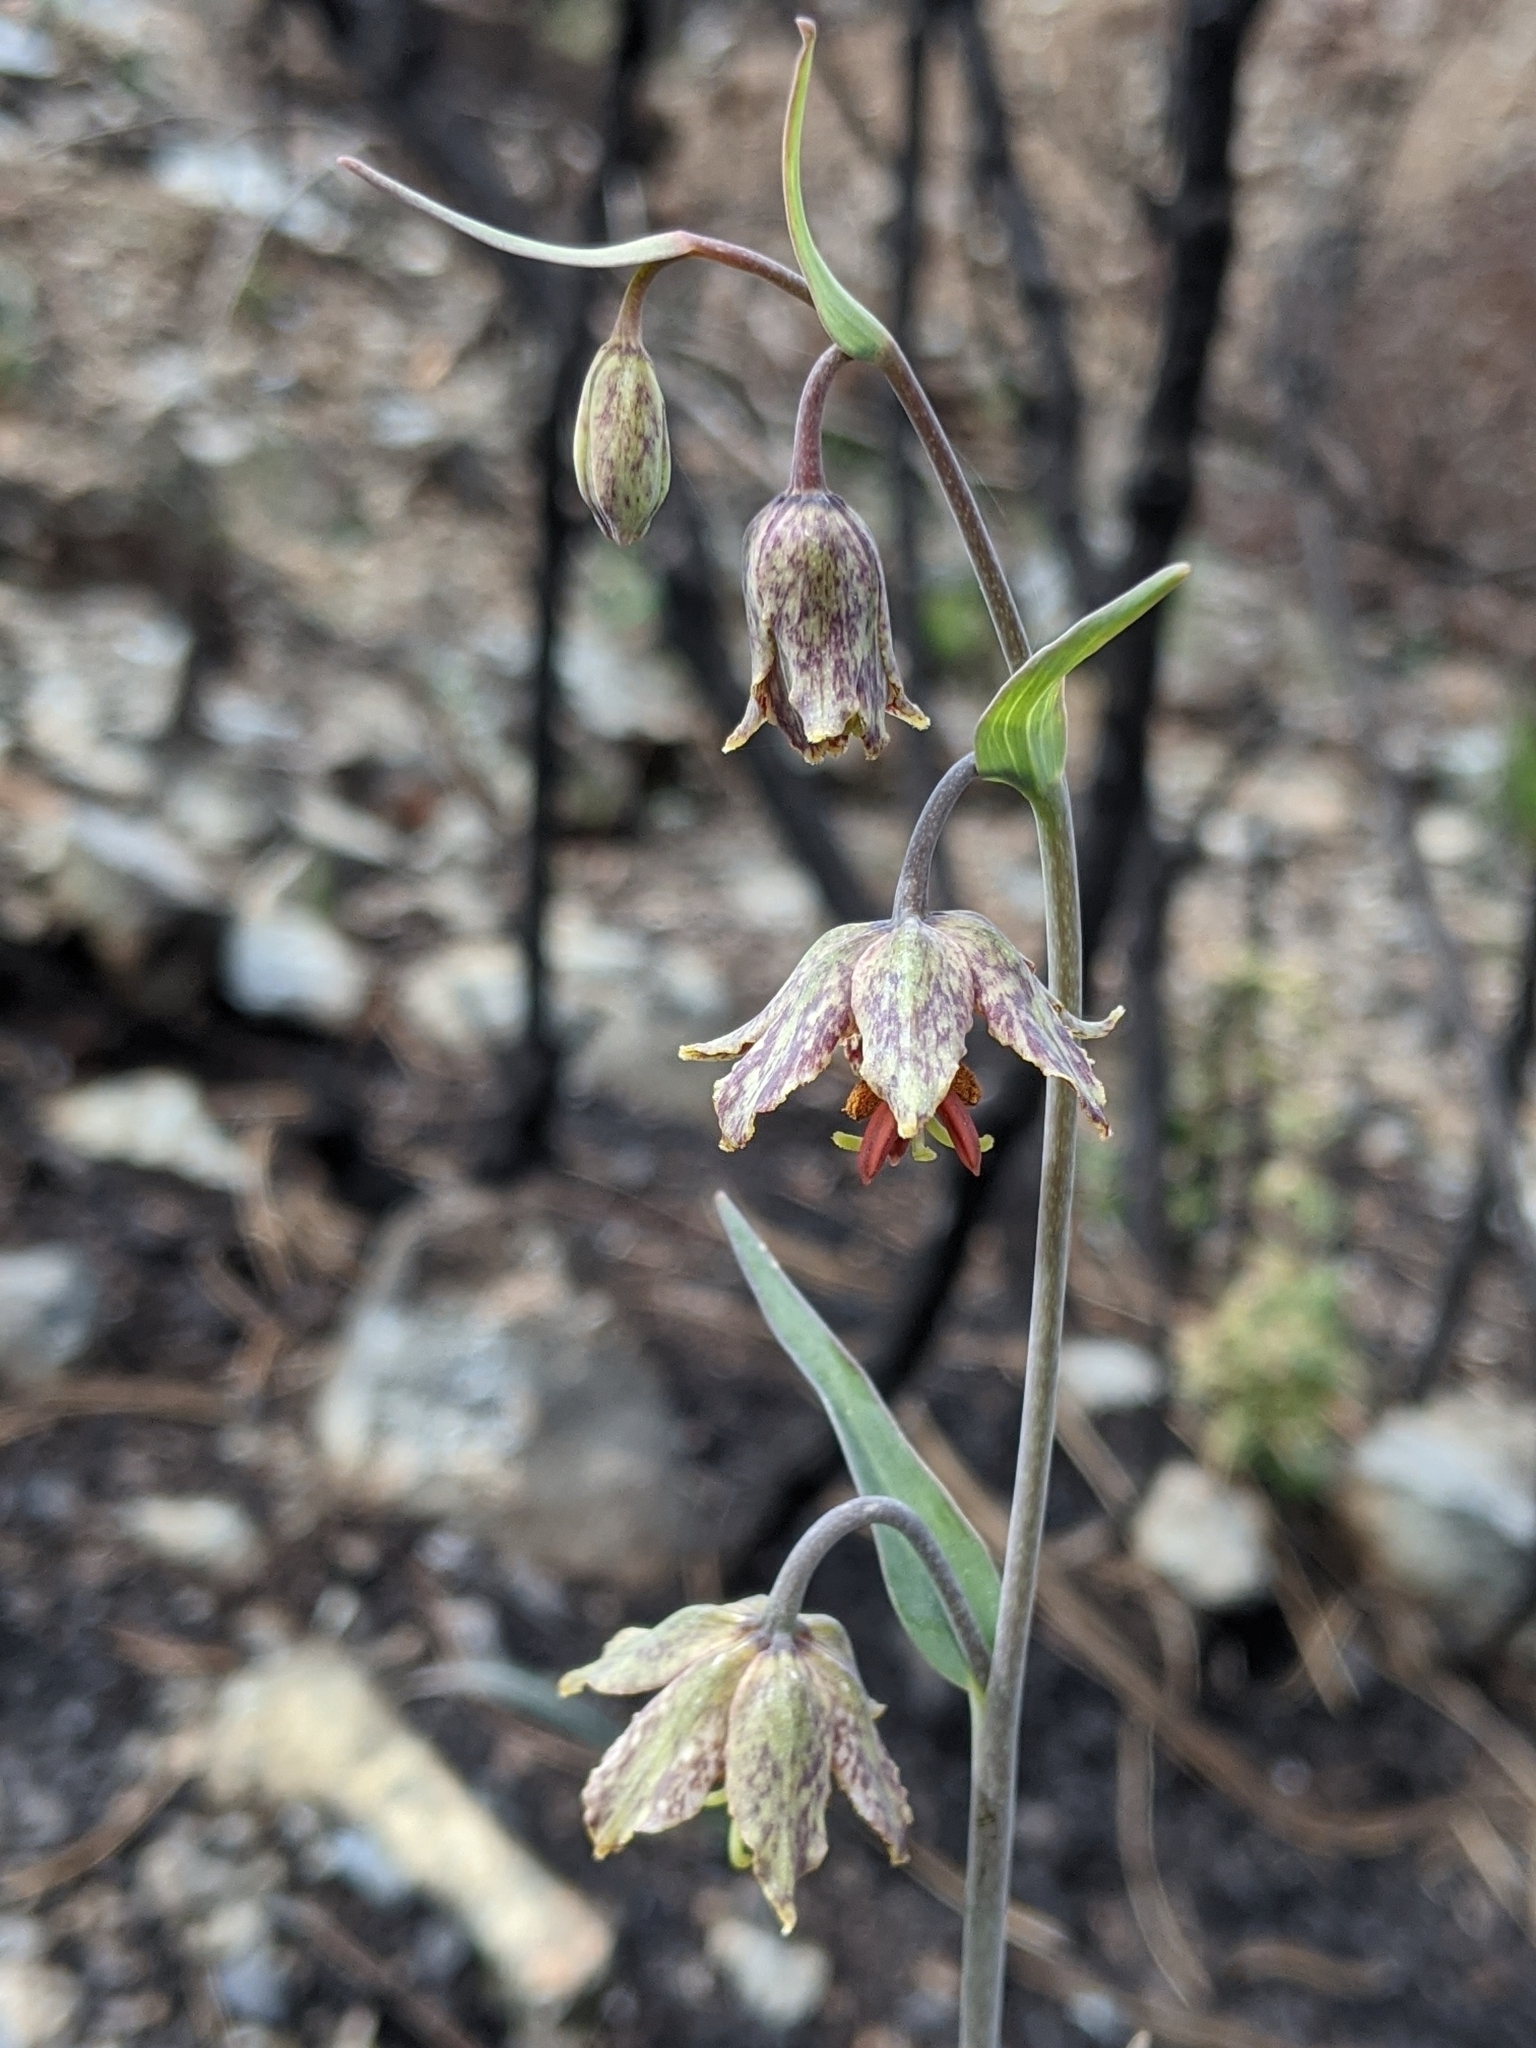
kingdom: Plantae
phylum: Tracheophyta
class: Liliopsida
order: Liliales
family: Liliaceae
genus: Fritillaria
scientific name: Fritillaria affinis
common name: Ojai fritillary
